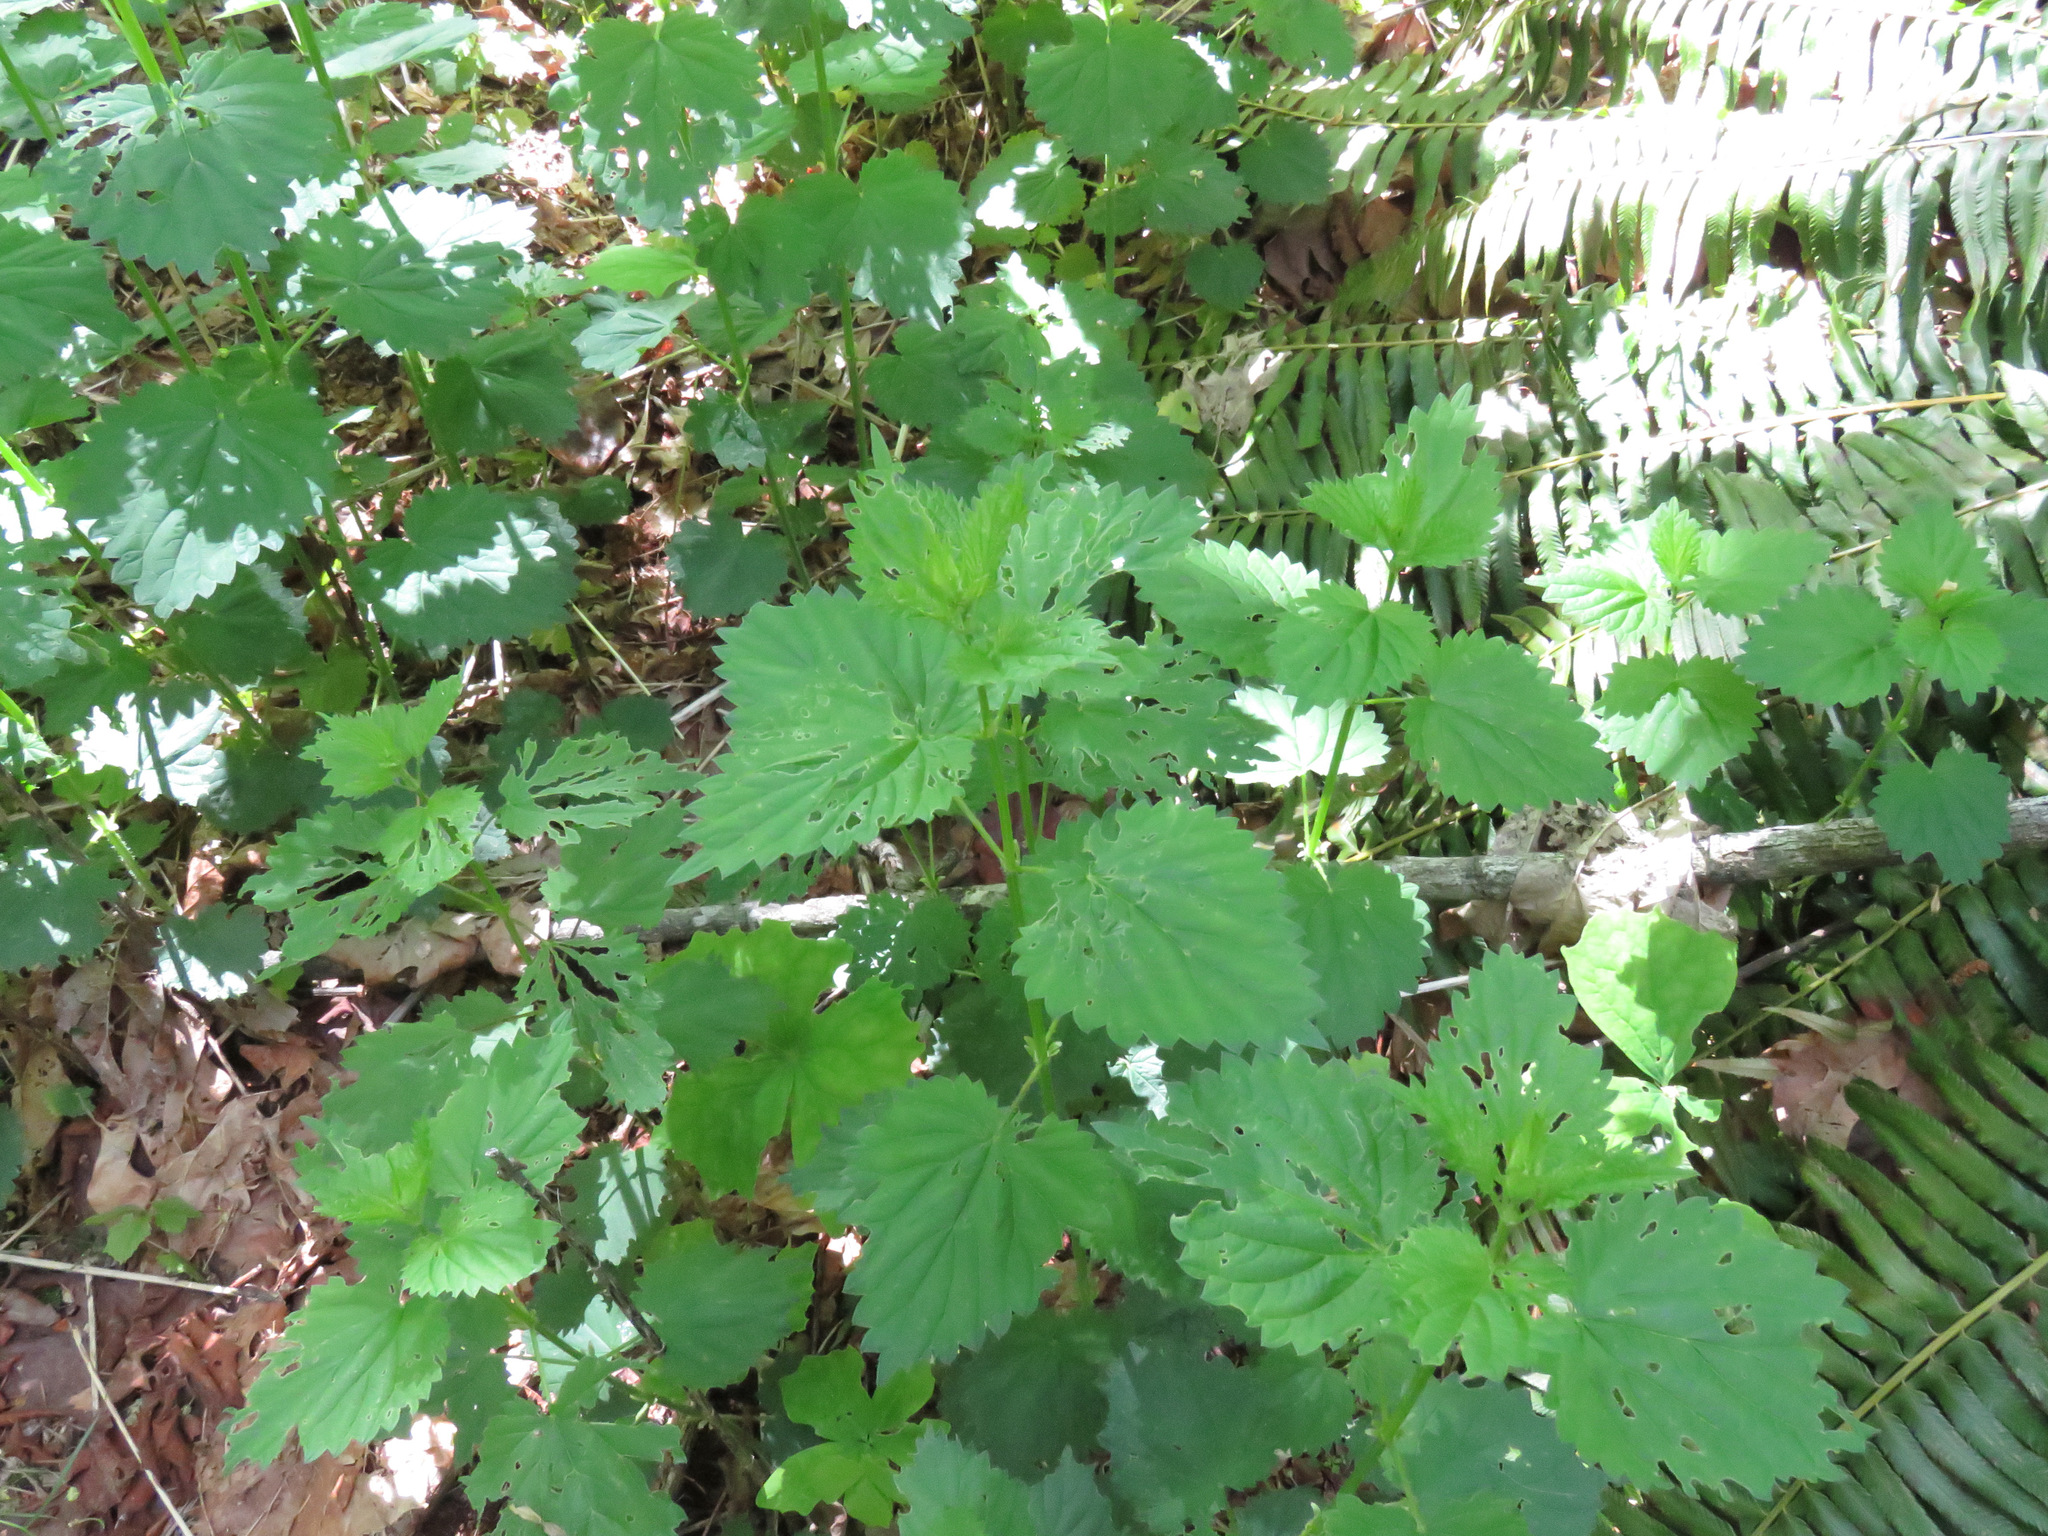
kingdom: Plantae
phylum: Tracheophyta
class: Magnoliopsida
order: Rosales
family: Urticaceae
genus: Urtica
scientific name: Urtica dioica
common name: Common nettle
